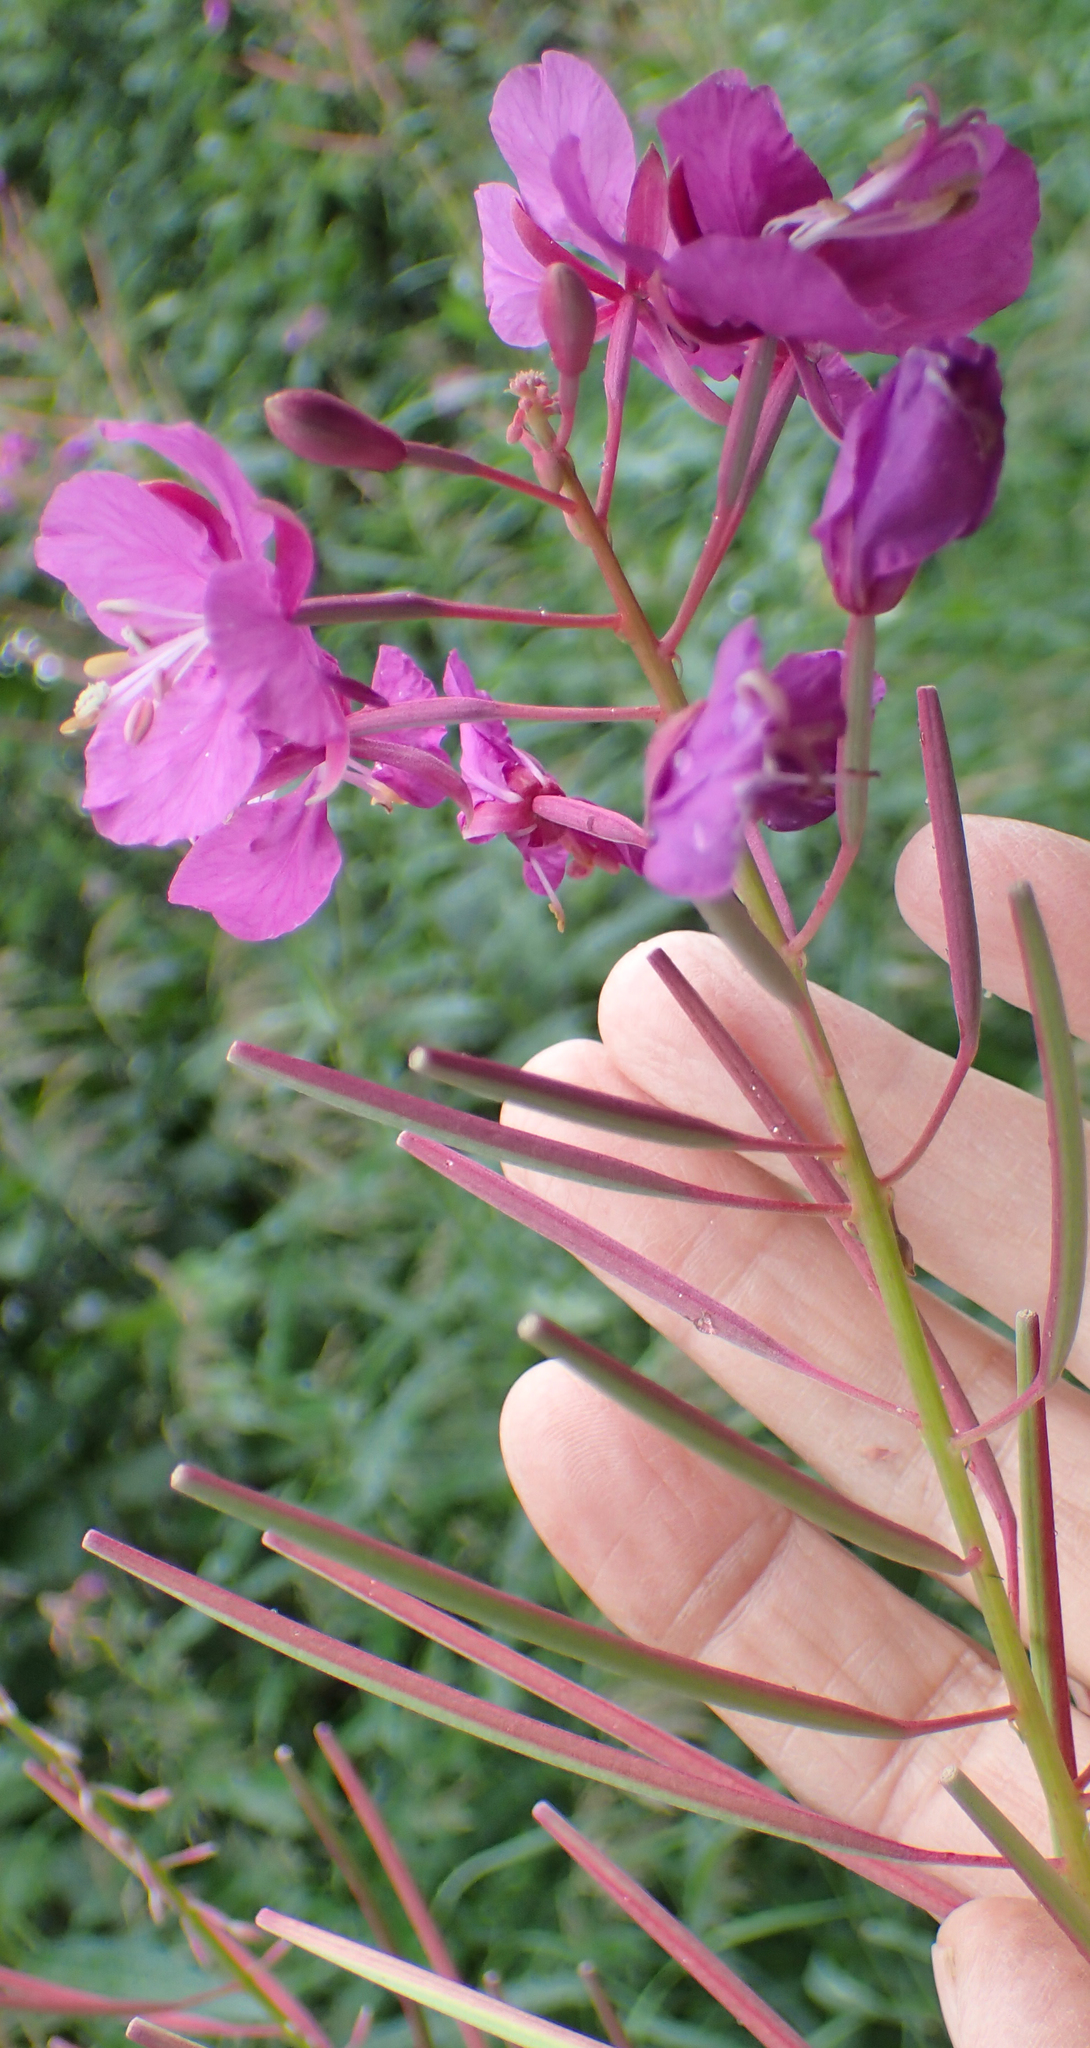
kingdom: Plantae
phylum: Tracheophyta
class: Magnoliopsida
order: Myrtales
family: Onagraceae
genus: Chamaenerion
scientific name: Chamaenerion angustifolium
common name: Fireweed
